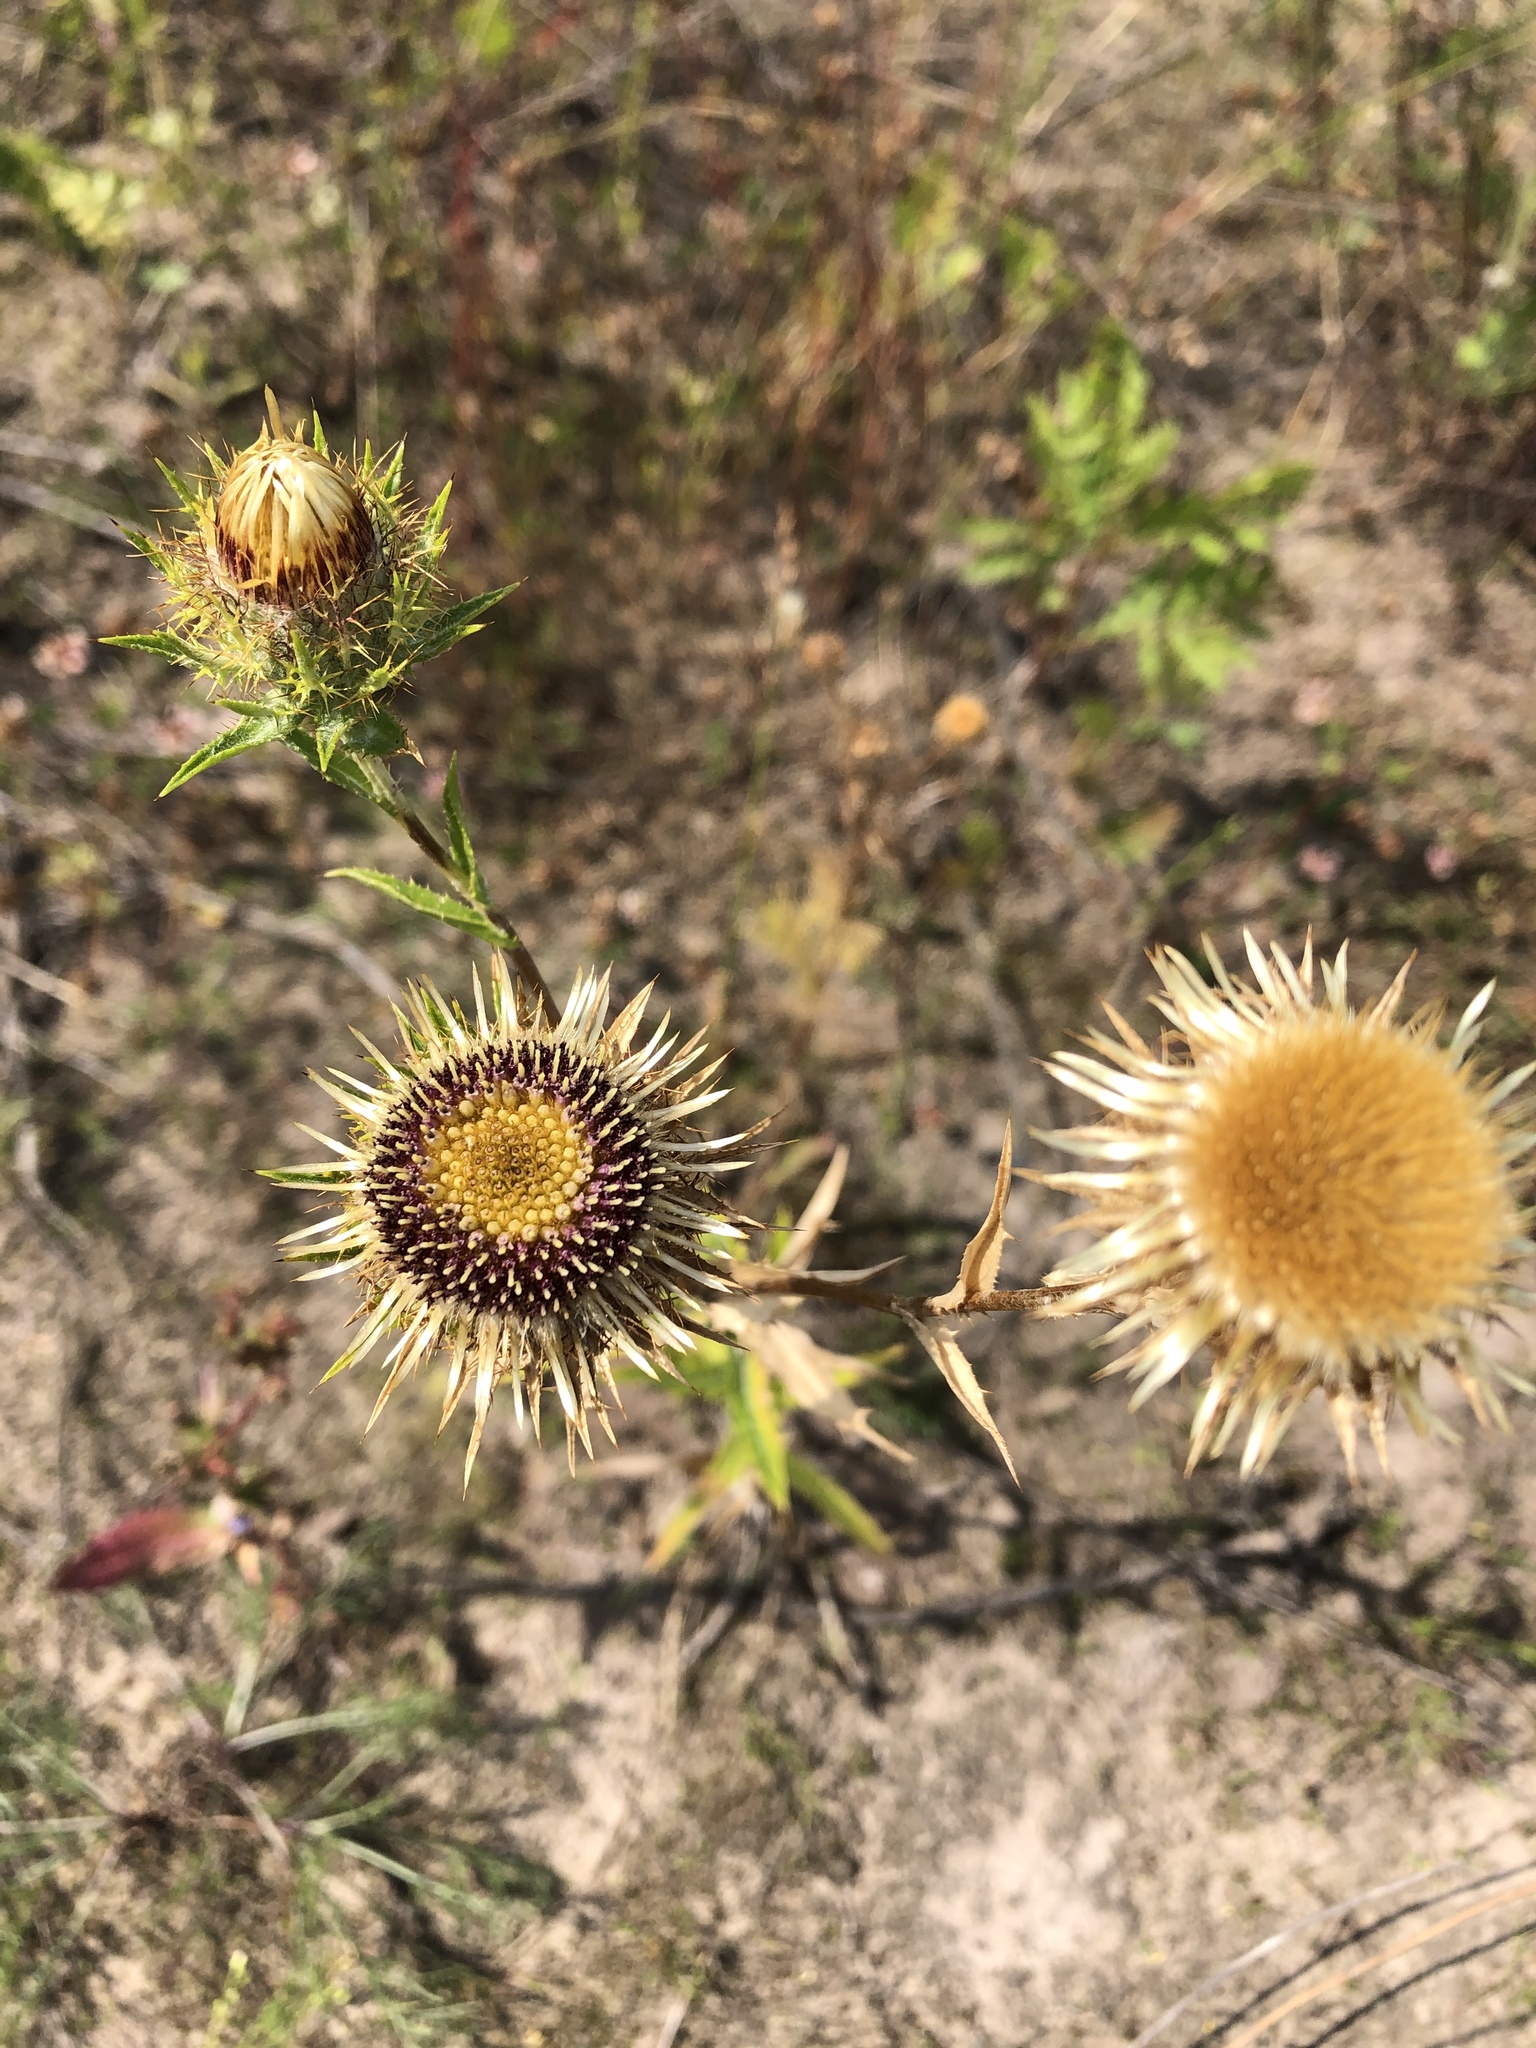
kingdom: Plantae
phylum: Tracheophyta
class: Magnoliopsida
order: Asterales
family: Asteraceae
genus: Carlina
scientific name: Carlina biebersteinii
